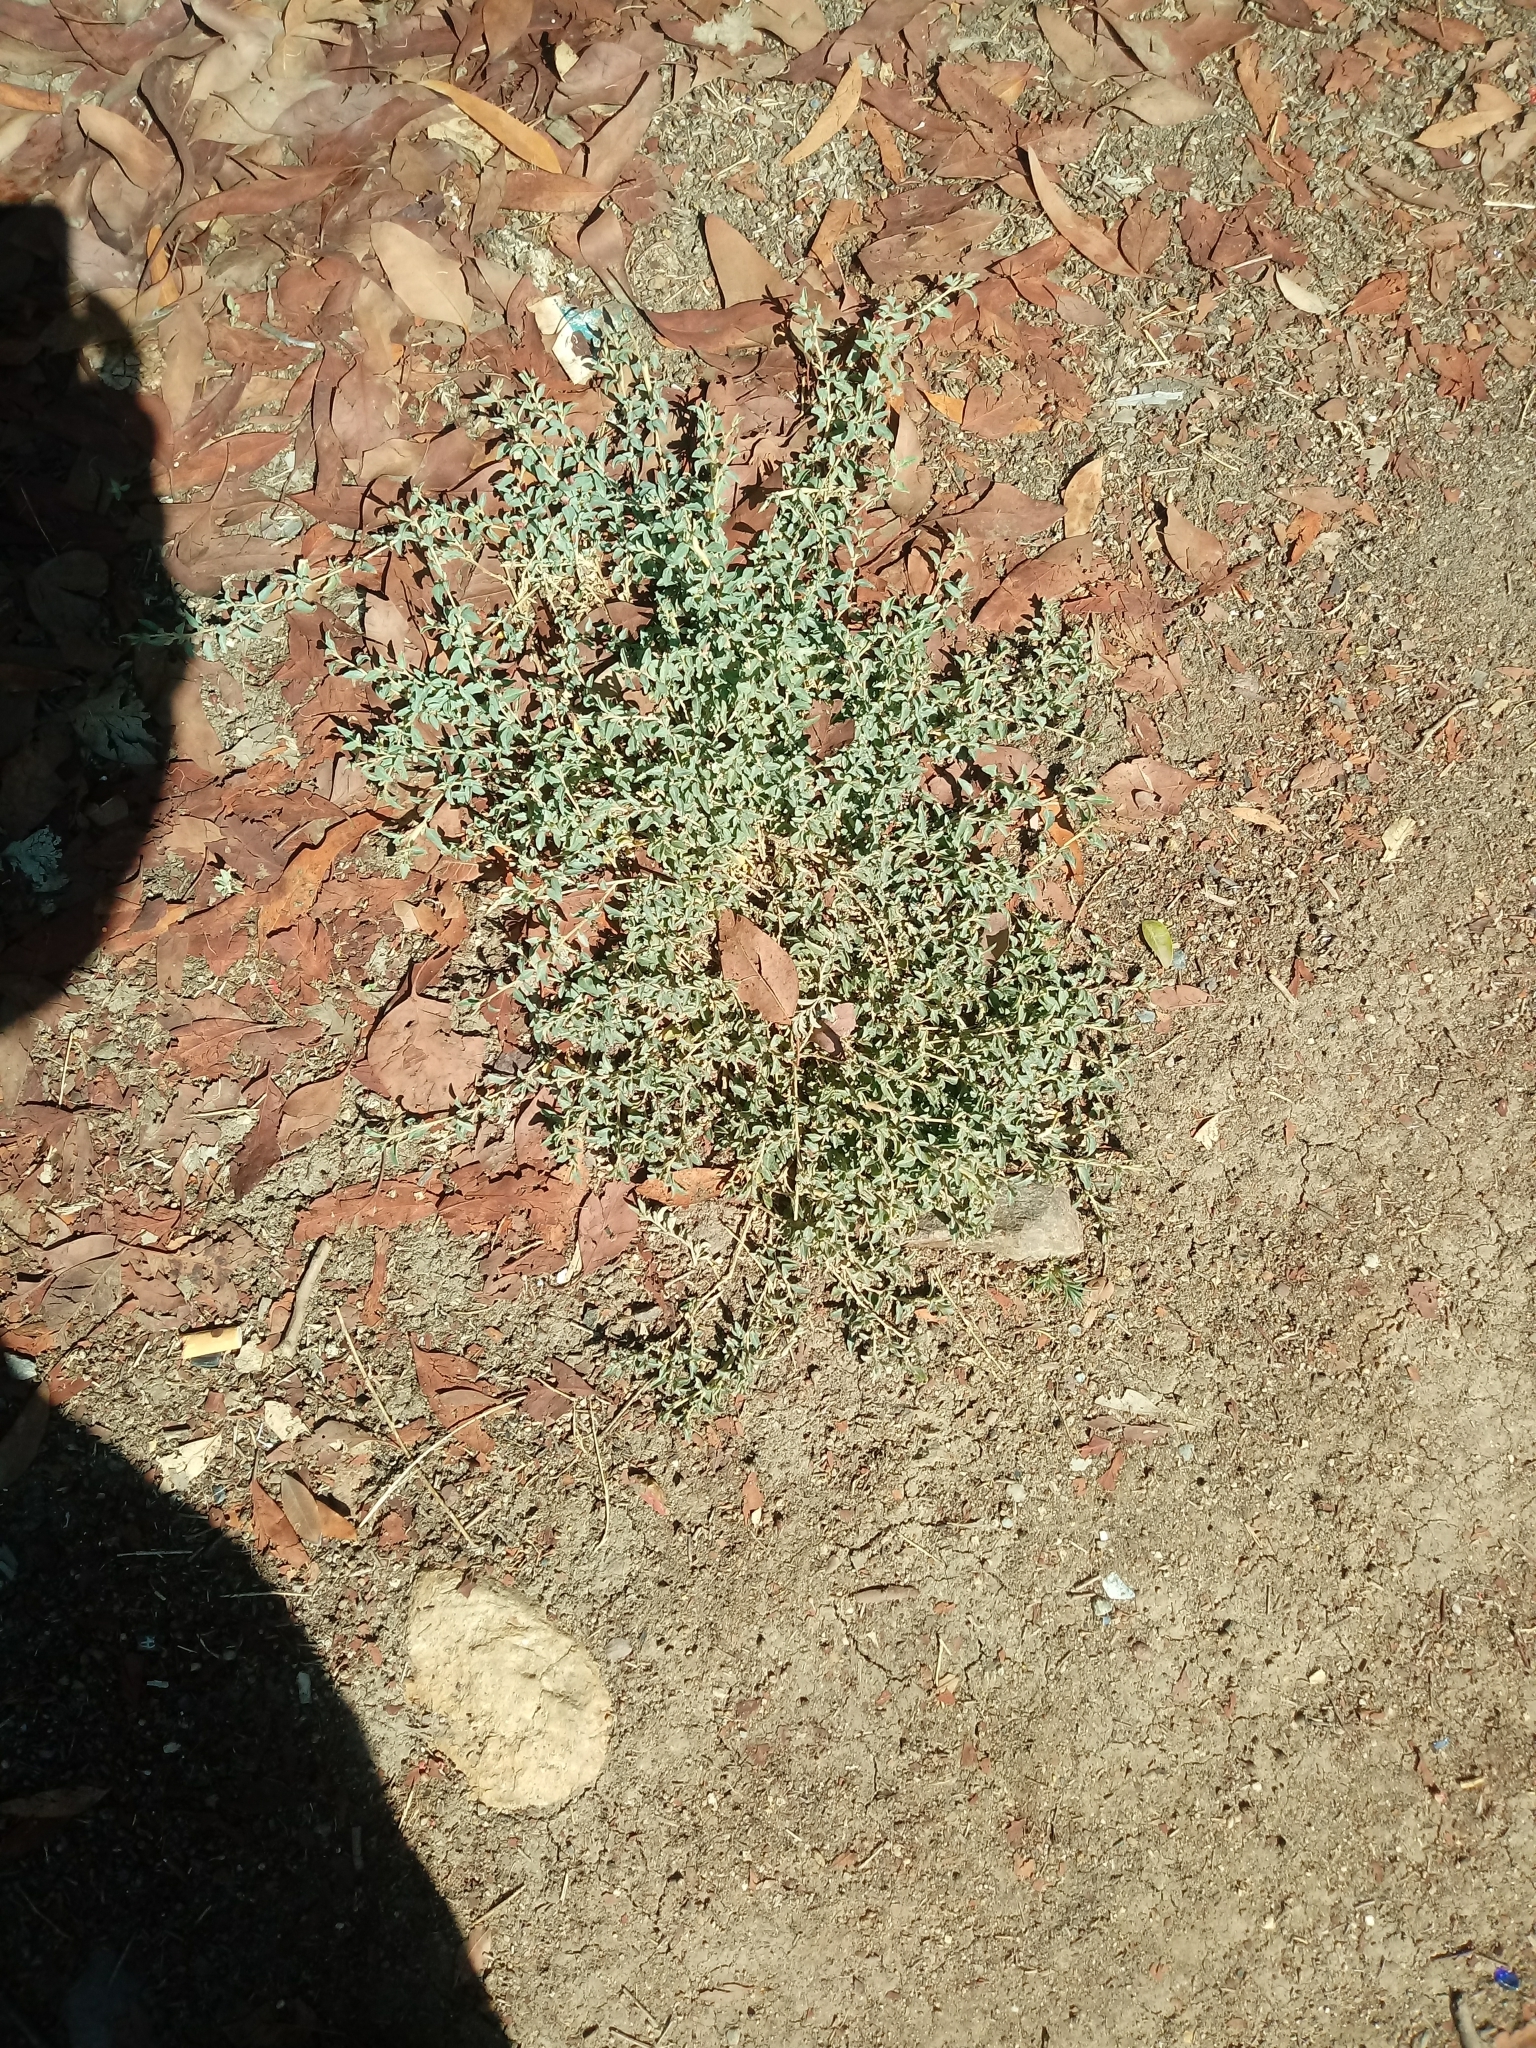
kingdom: Plantae
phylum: Tracheophyta
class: Magnoliopsida
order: Caryophyllales
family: Amaranthaceae
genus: Atriplex
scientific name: Atriplex semibaccata
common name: Australian saltbush
